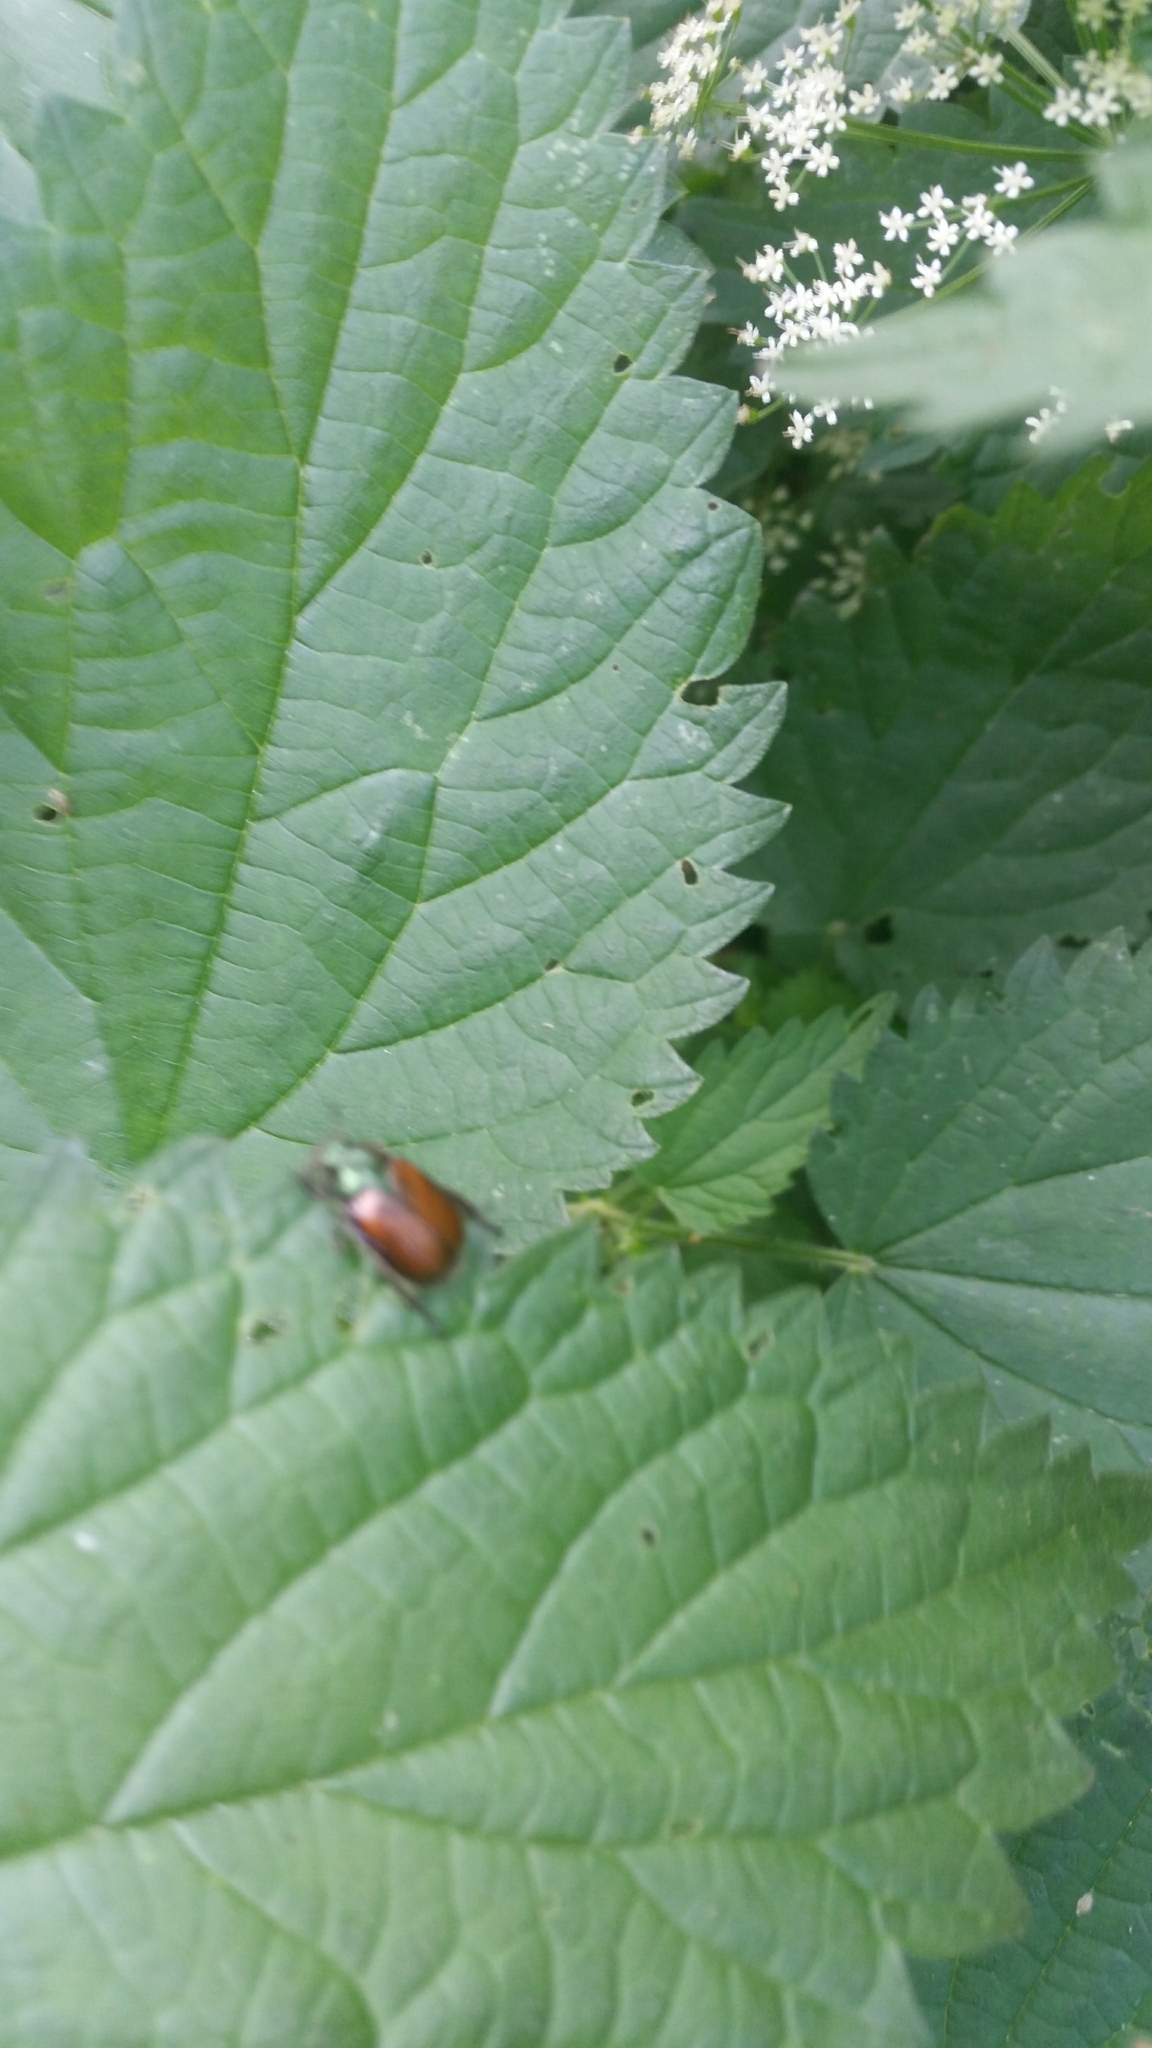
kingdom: Animalia
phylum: Arthropoda
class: Insecta
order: Coleoptera
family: Scarabaeidae
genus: Phyllopertha
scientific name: Phyllopertha horticola
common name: Garden chafer
